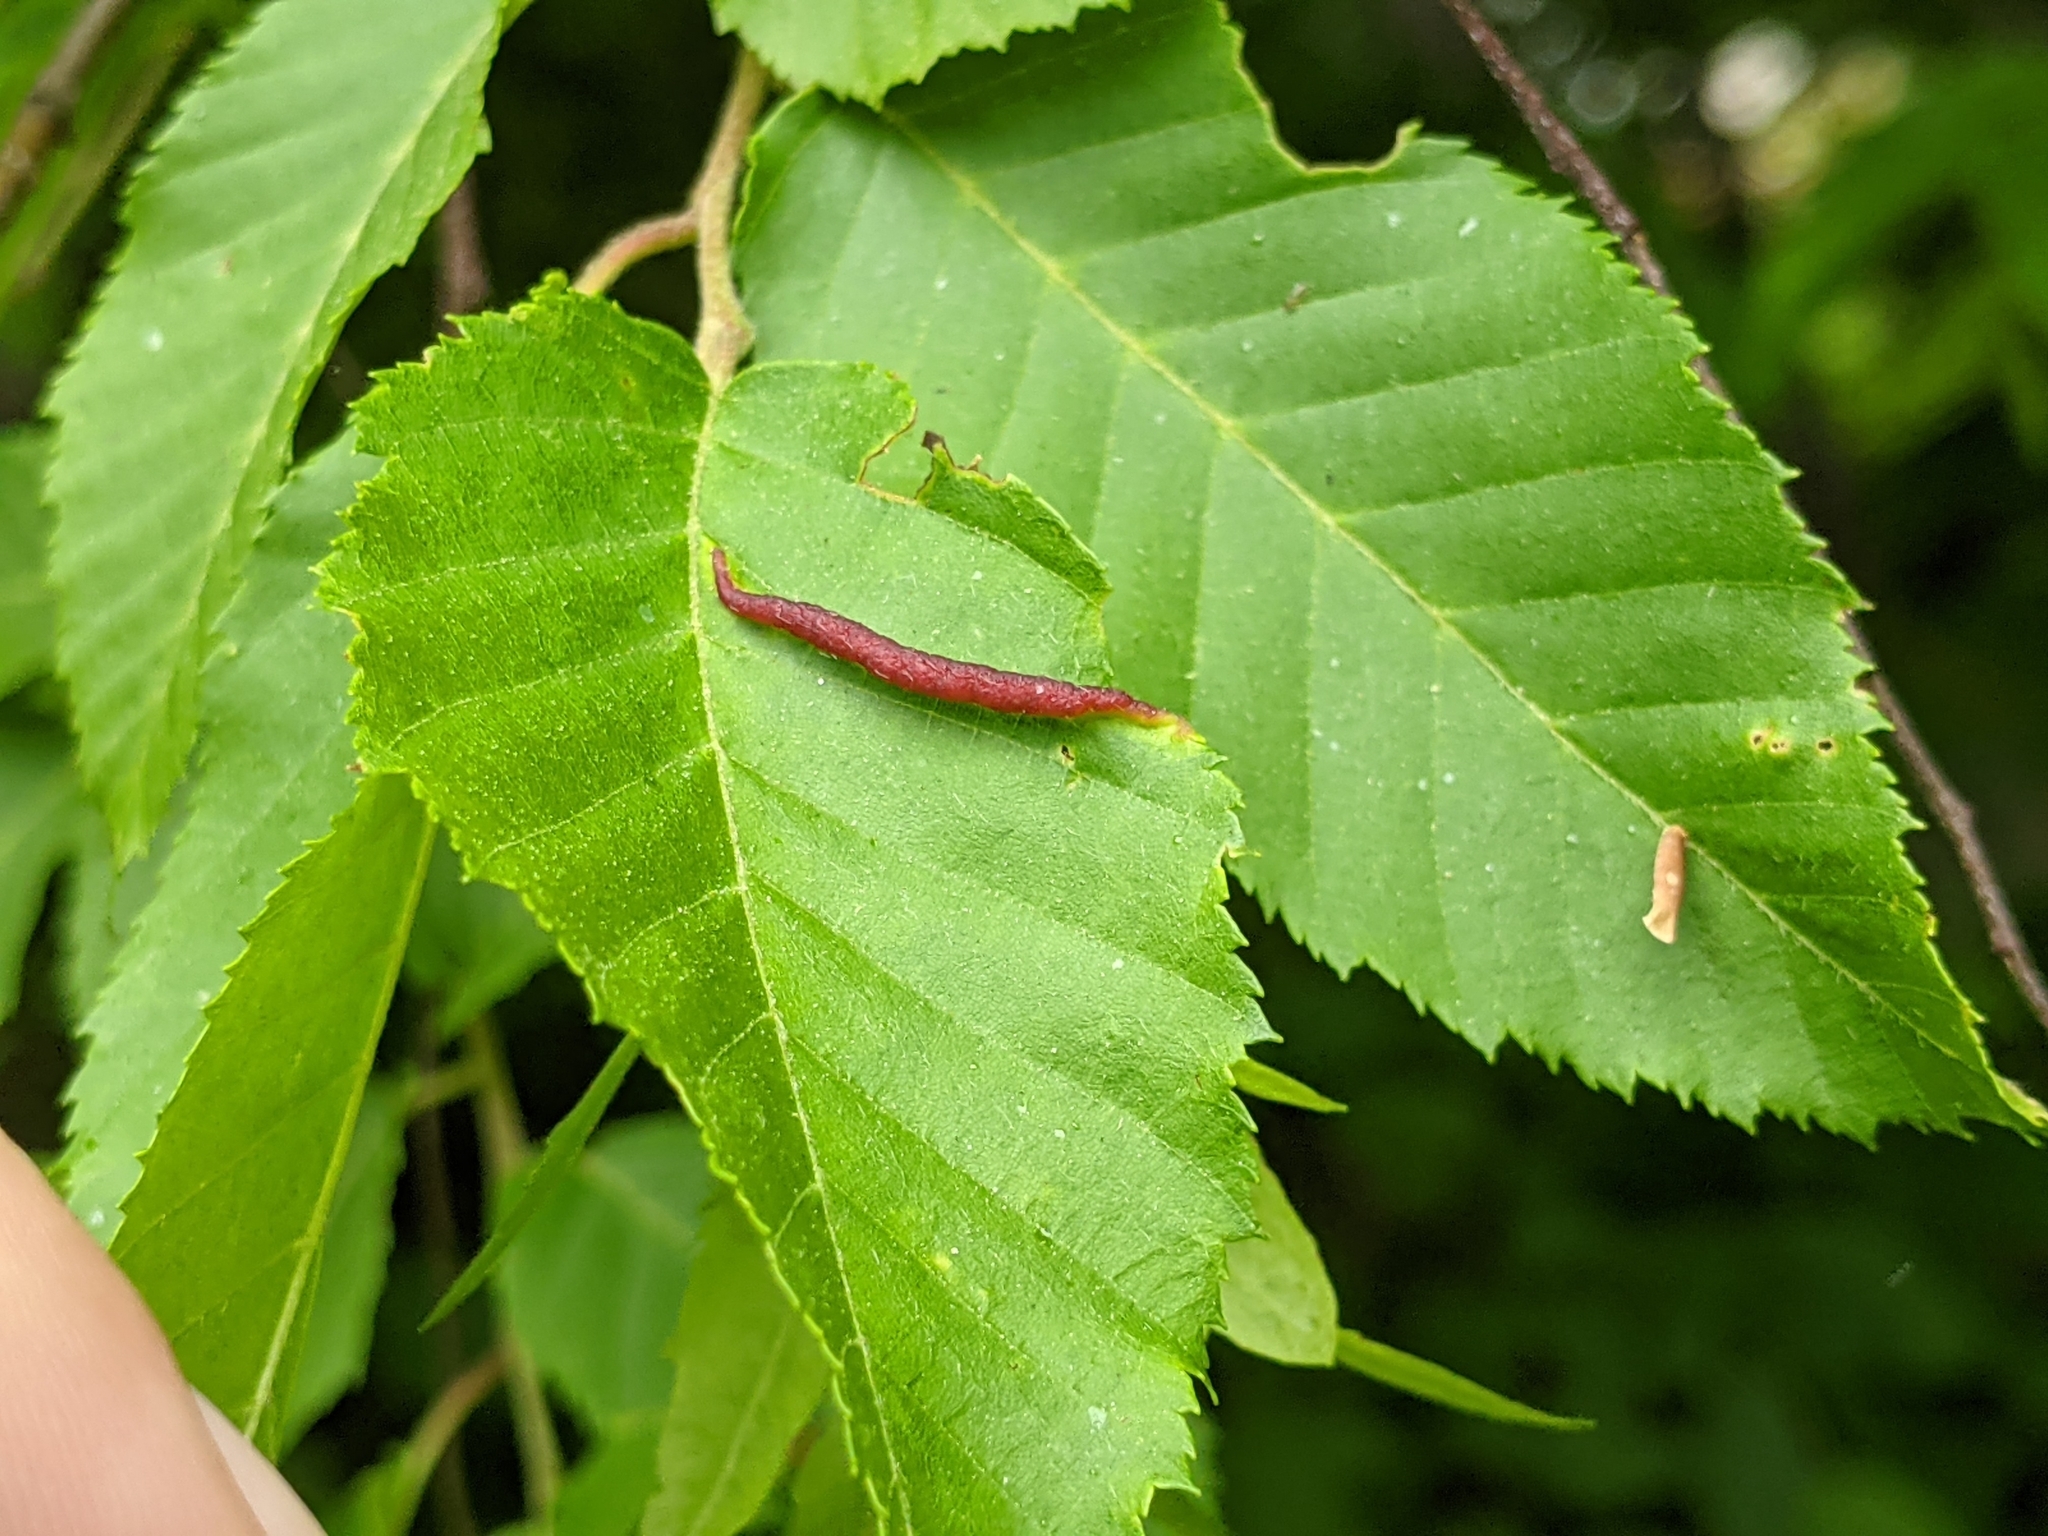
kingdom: Animalia
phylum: Arthropoda
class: Insecta
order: Diptera
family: Cecidomyiidae
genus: Dasineura
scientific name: Dasineura pudibunda
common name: Hornbeam leaf gall midge
